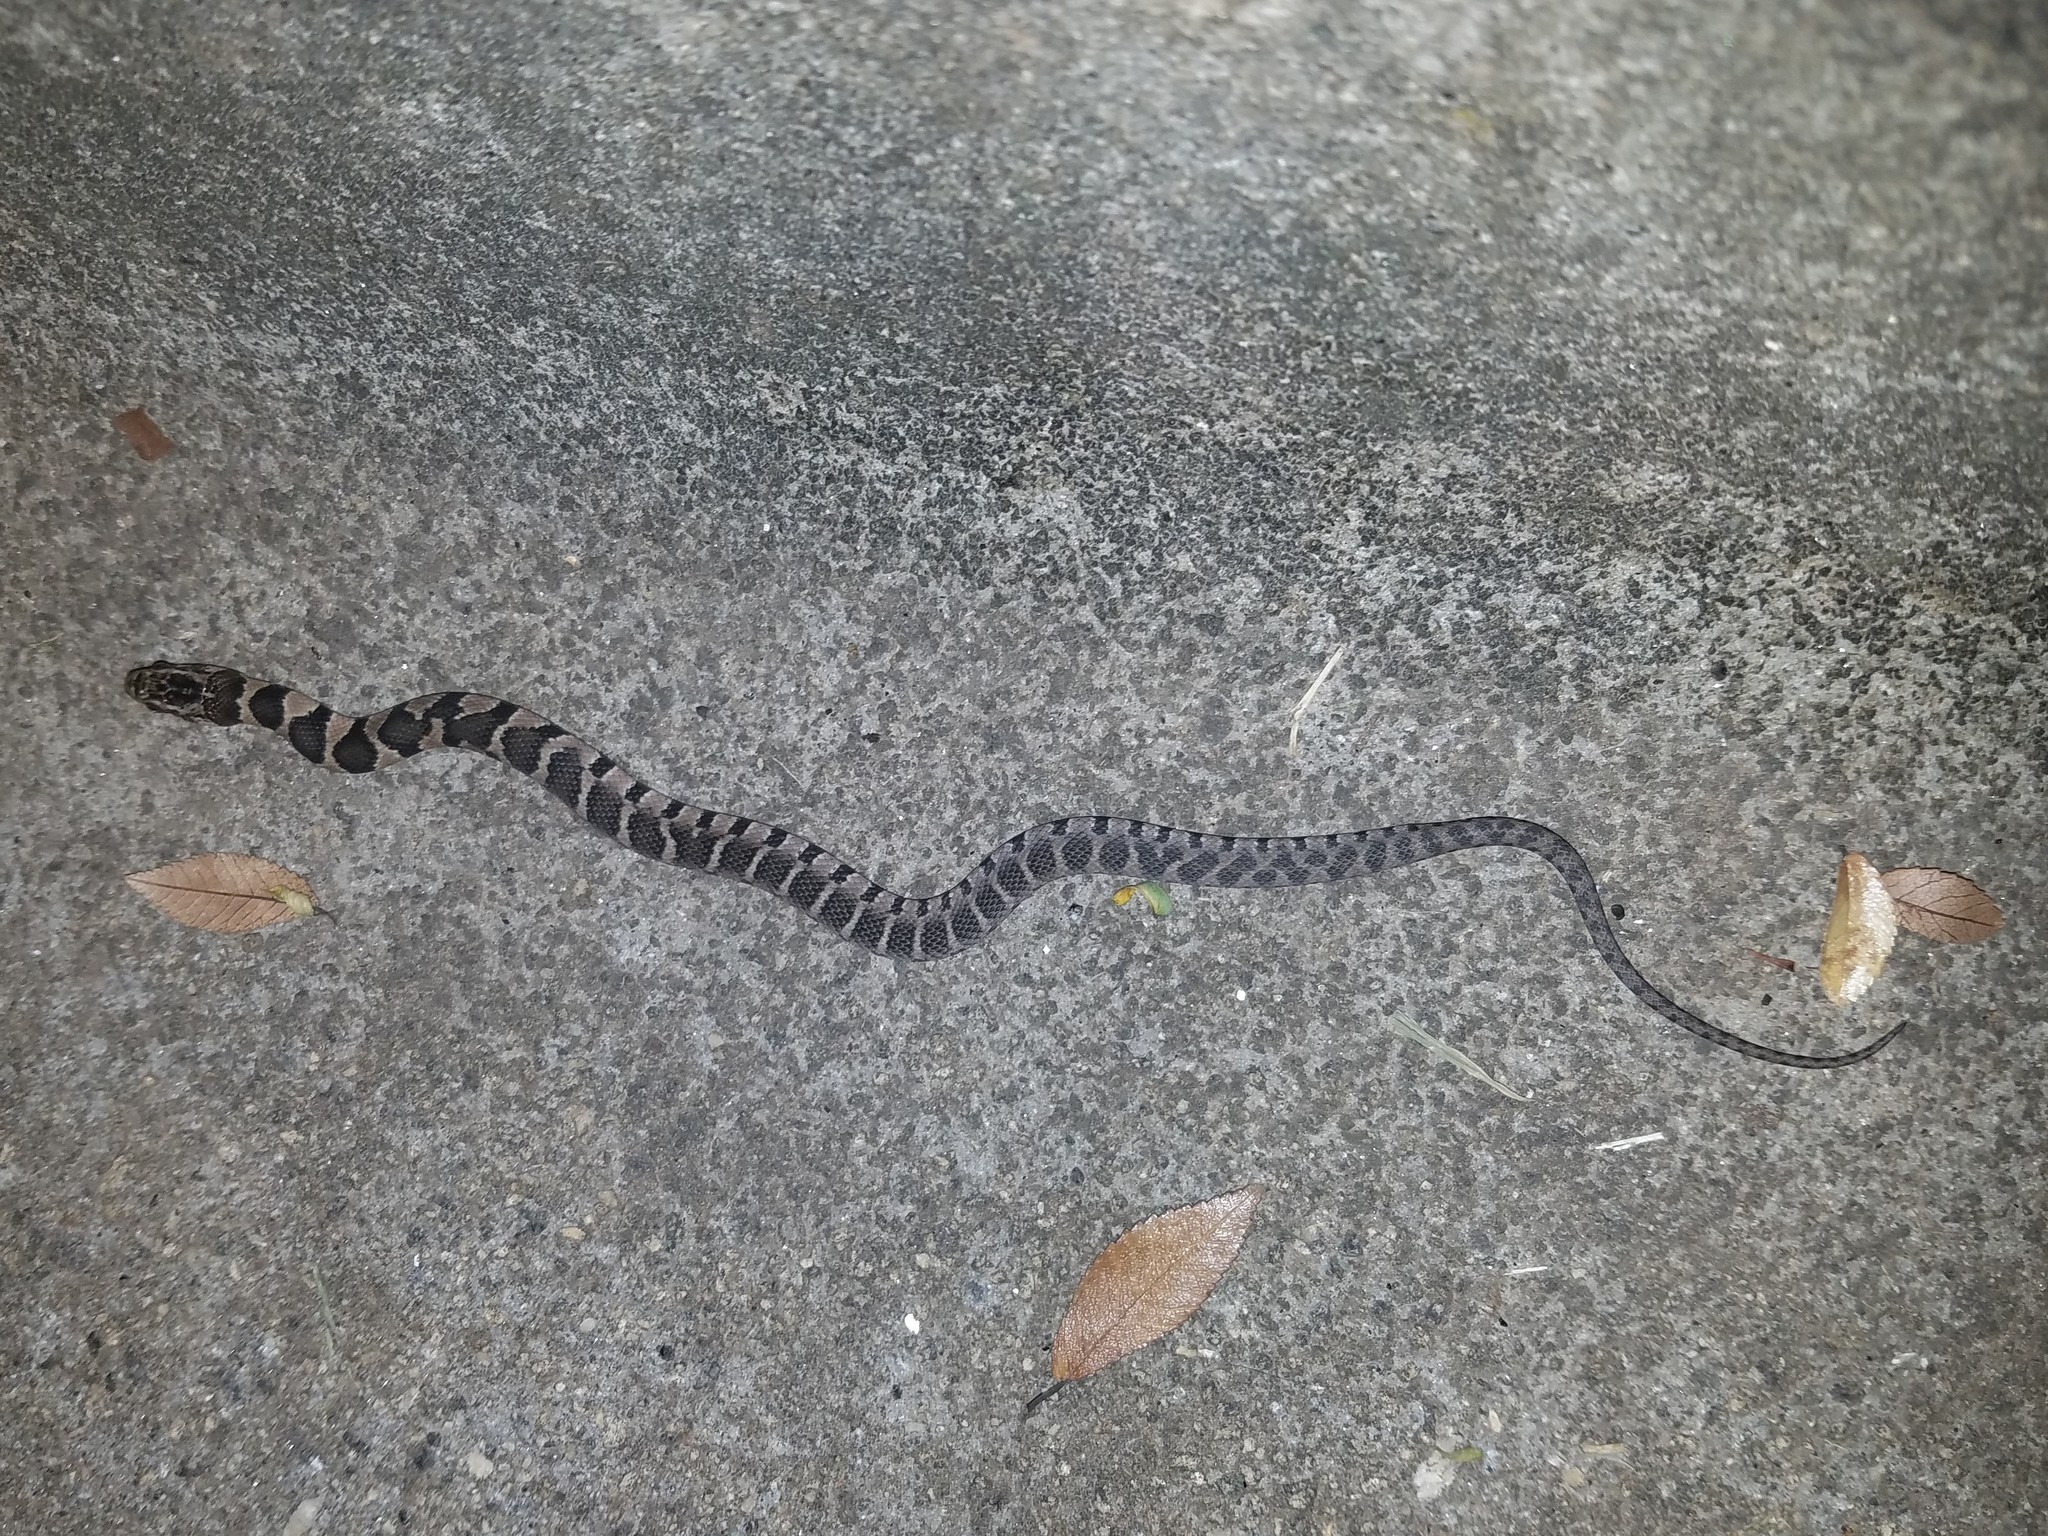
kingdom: Animalia
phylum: Chordata
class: Squamata
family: Colubridae
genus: Nerodia
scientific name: Nerodia sipedon
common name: Northern water snake
